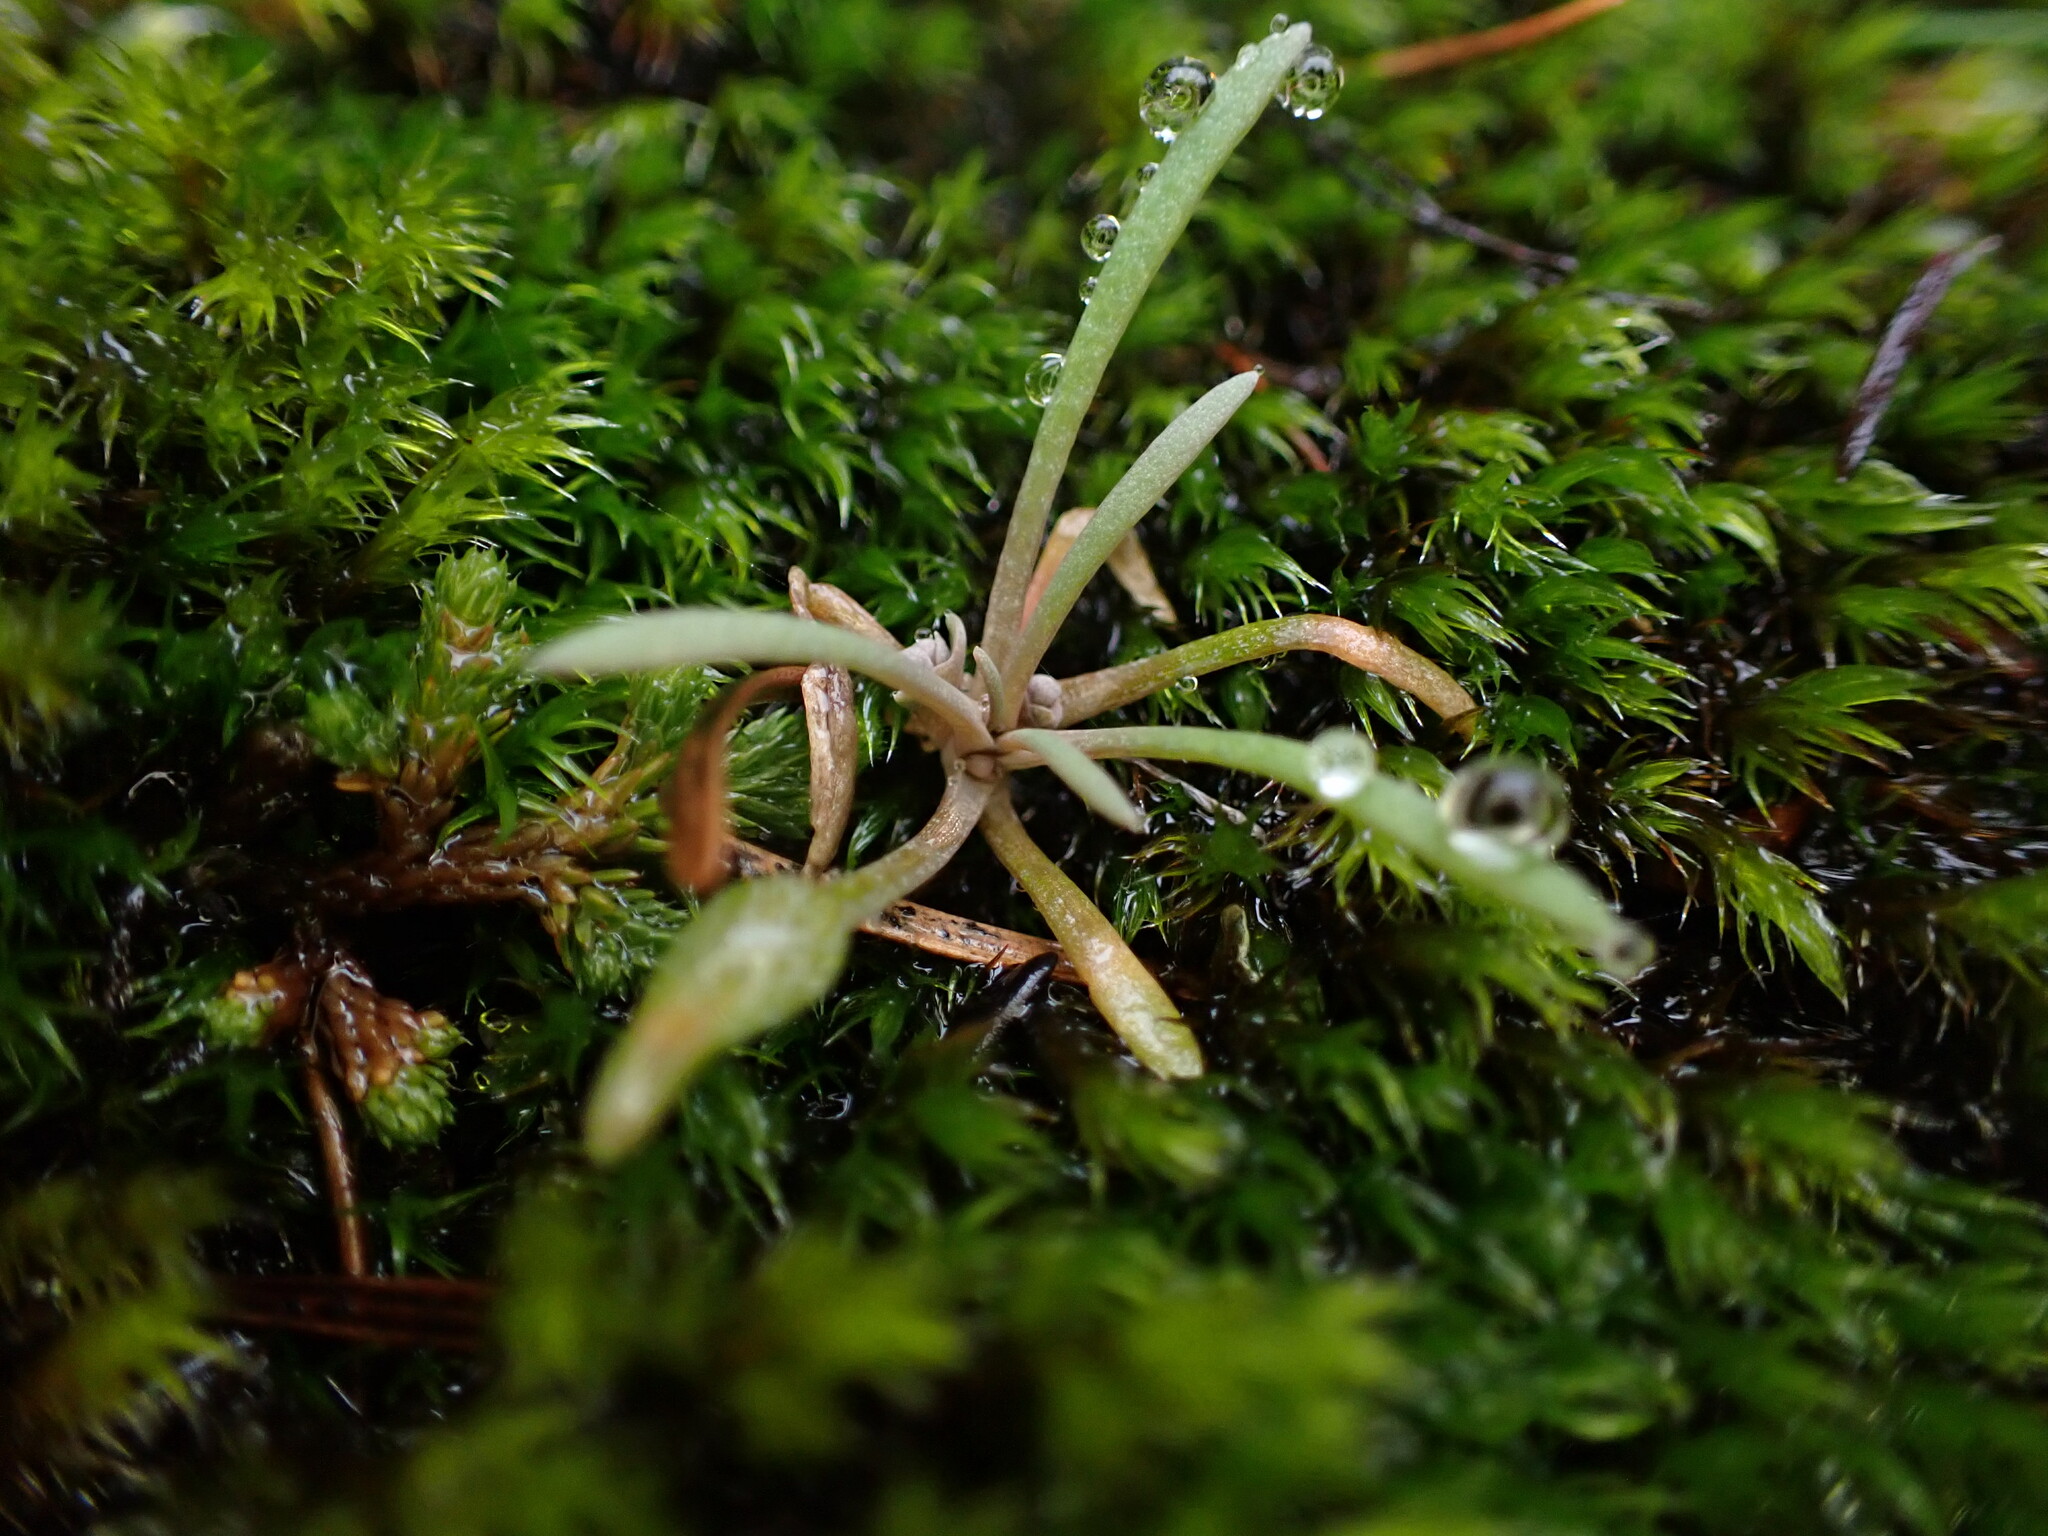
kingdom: Plantae
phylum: Tracheophyta
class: Magnoliopsida
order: Caryophyllales
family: Montiaceae
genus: Claytonia
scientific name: Claytonia exigua
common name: Pale spring beauty
